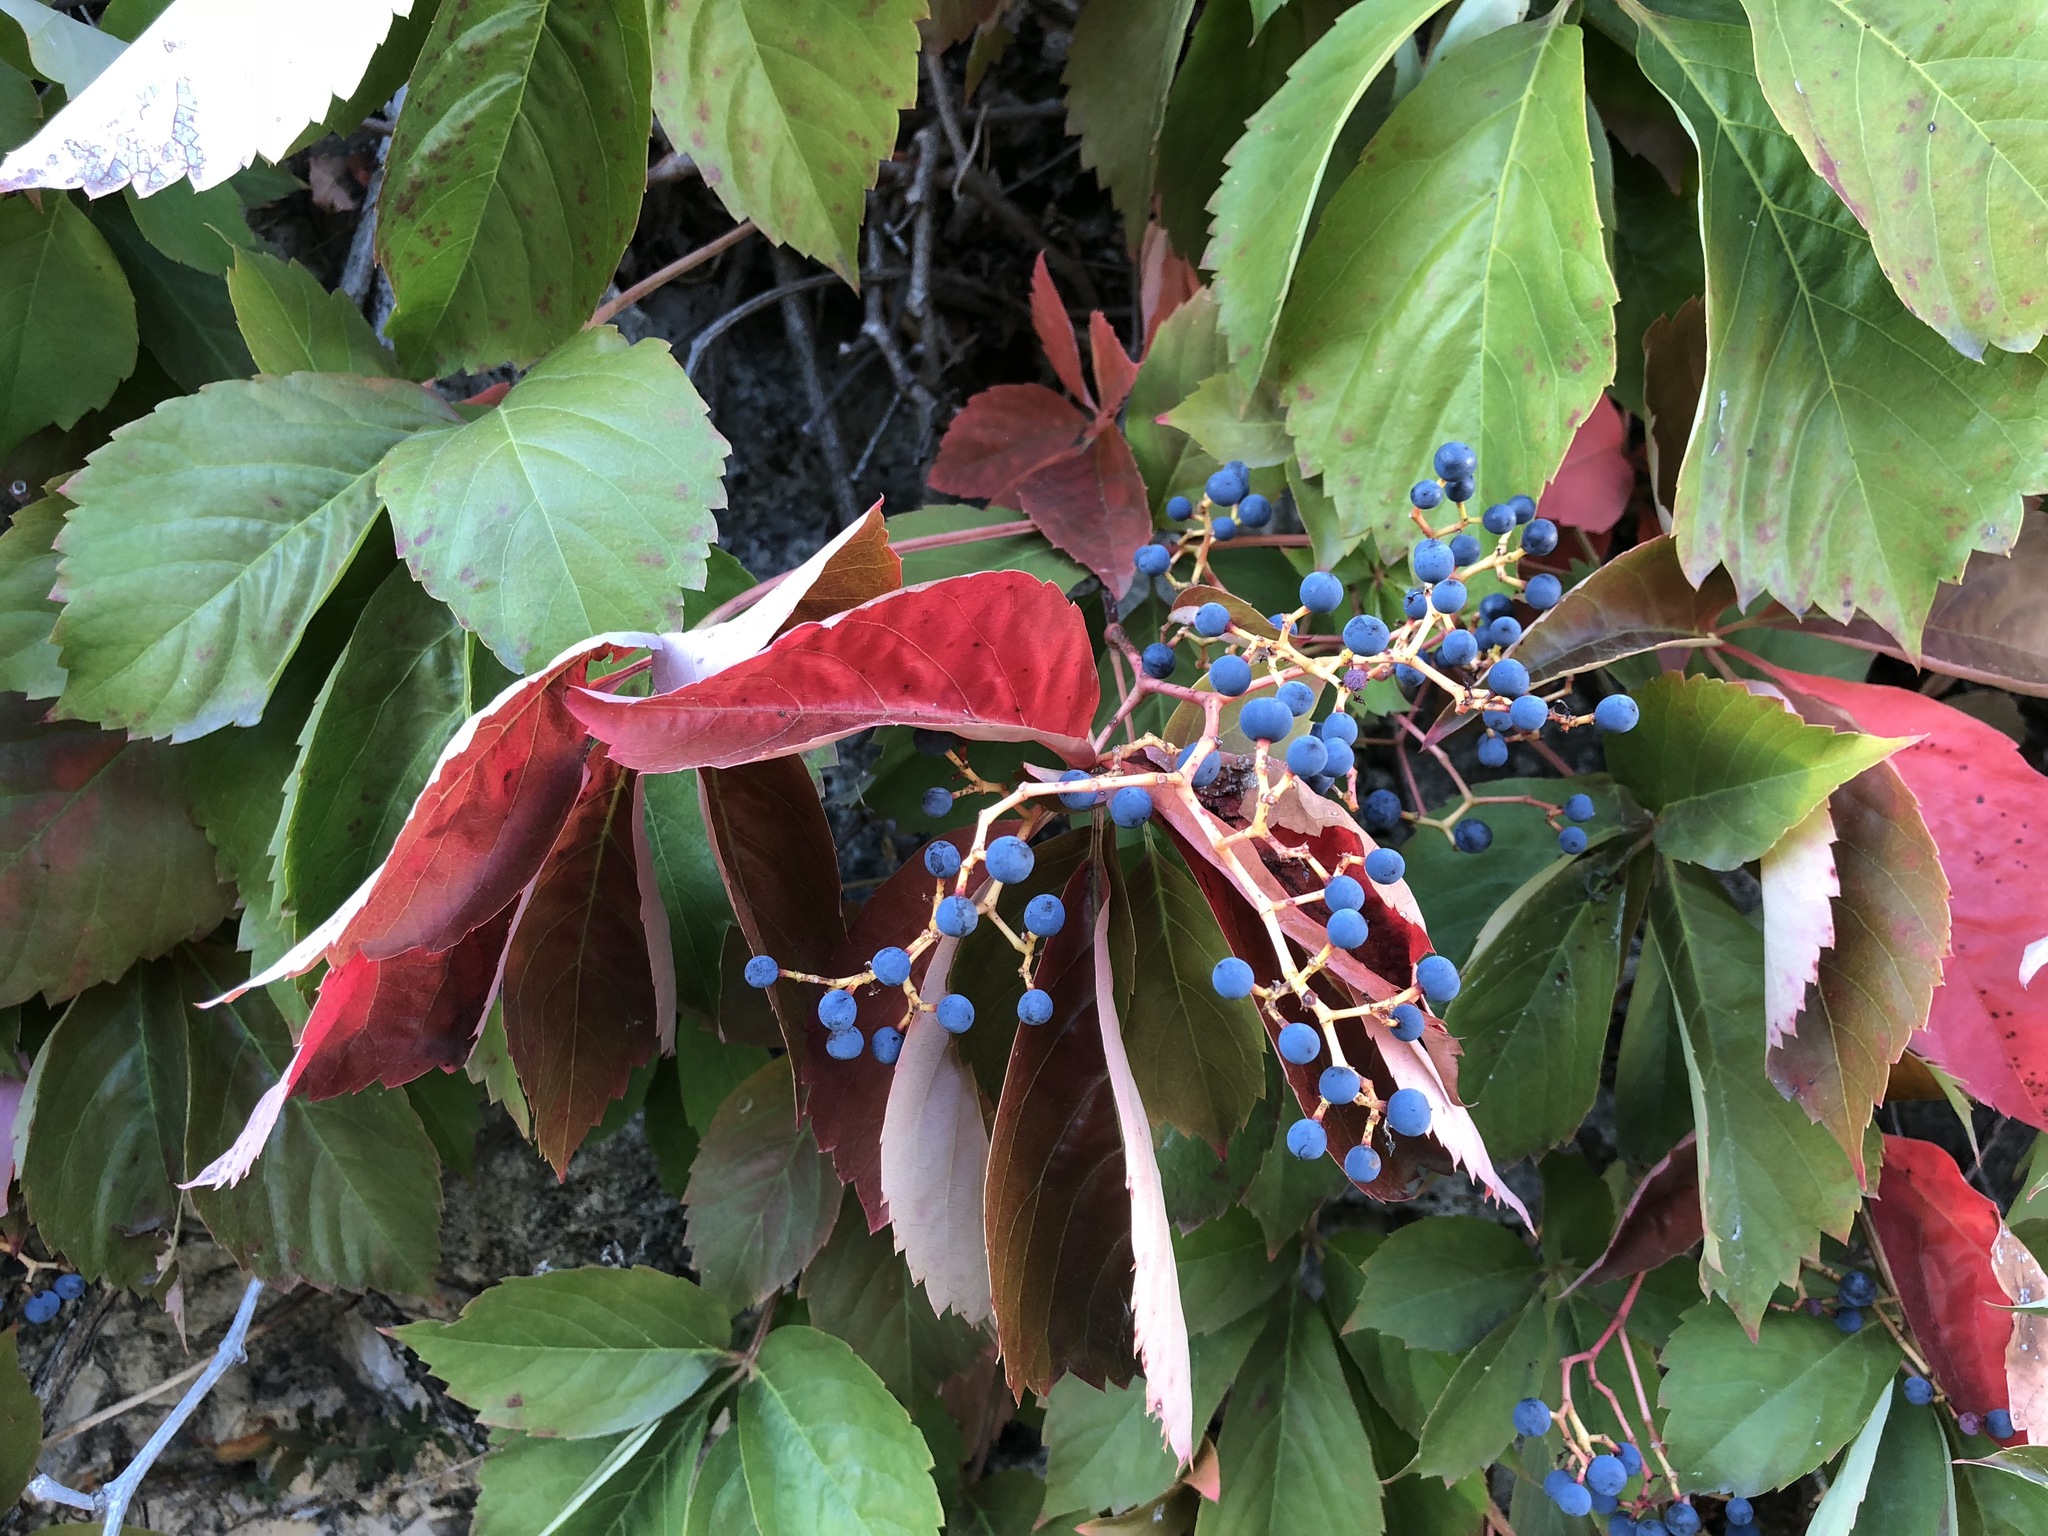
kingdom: Plantae
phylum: Tracheophyta
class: Magnoliopsida
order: Vitales
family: Vitaceae
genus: Parthenocissus
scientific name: Parthenocissus quinquefolia
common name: Virginia-creeper
